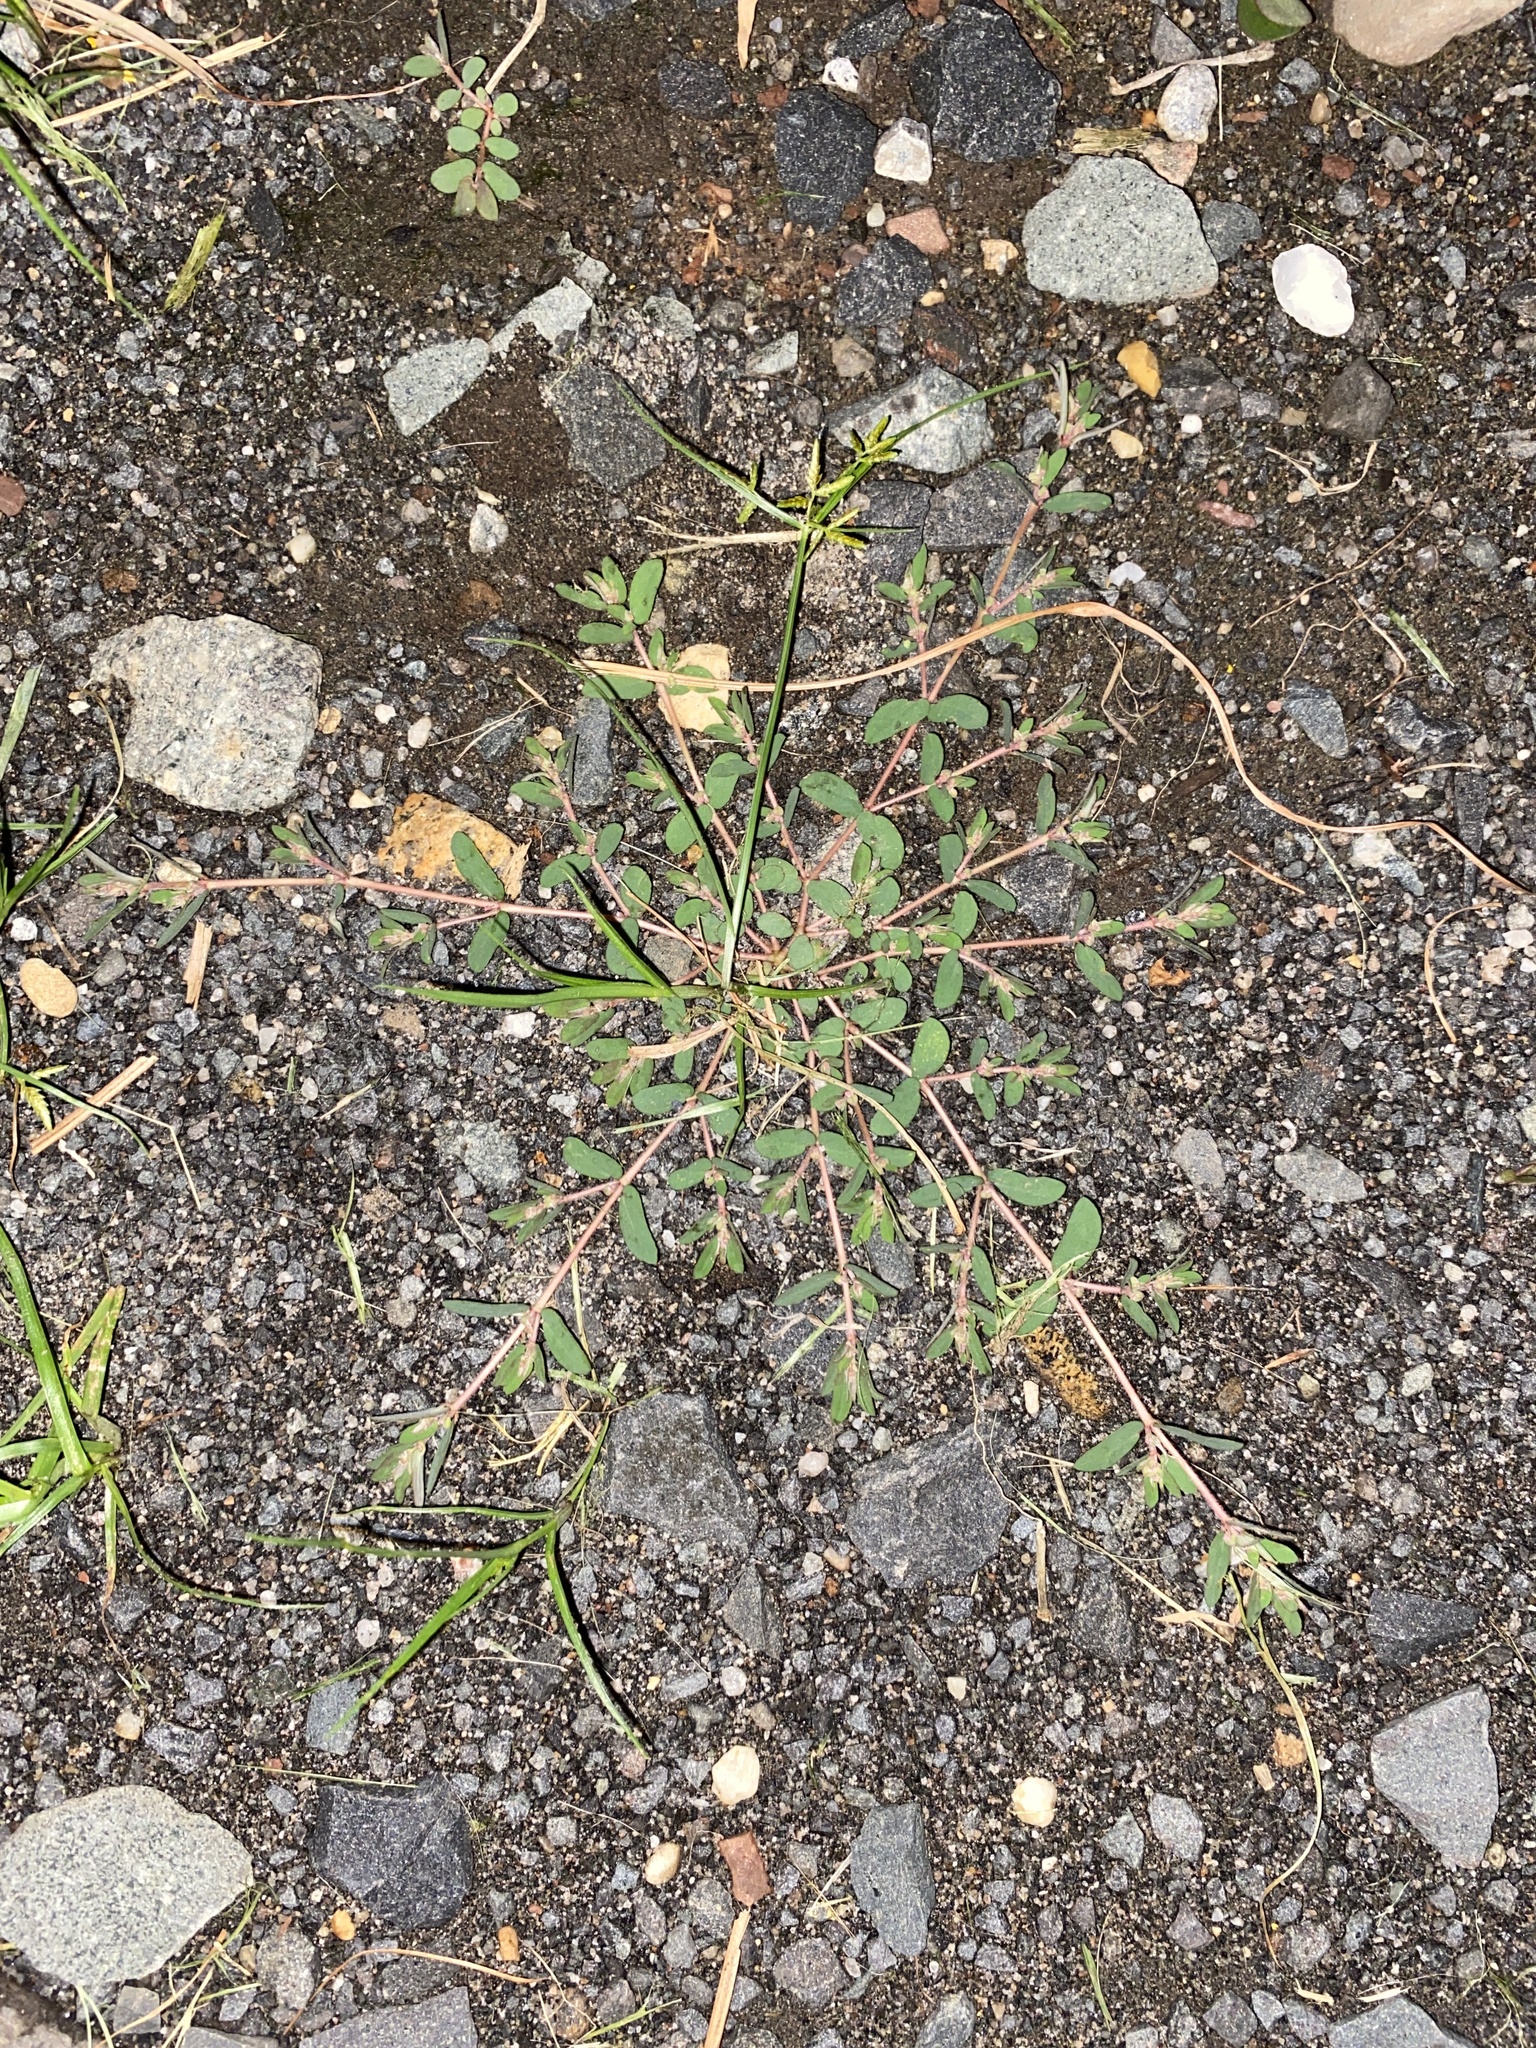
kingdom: Plantae
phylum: Tracheophyta
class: Magnoliopsida
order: Malpighiales
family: Euphorbiaceae
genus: Euphorbia
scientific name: Euphorbia maculata
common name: Spotted spurge
